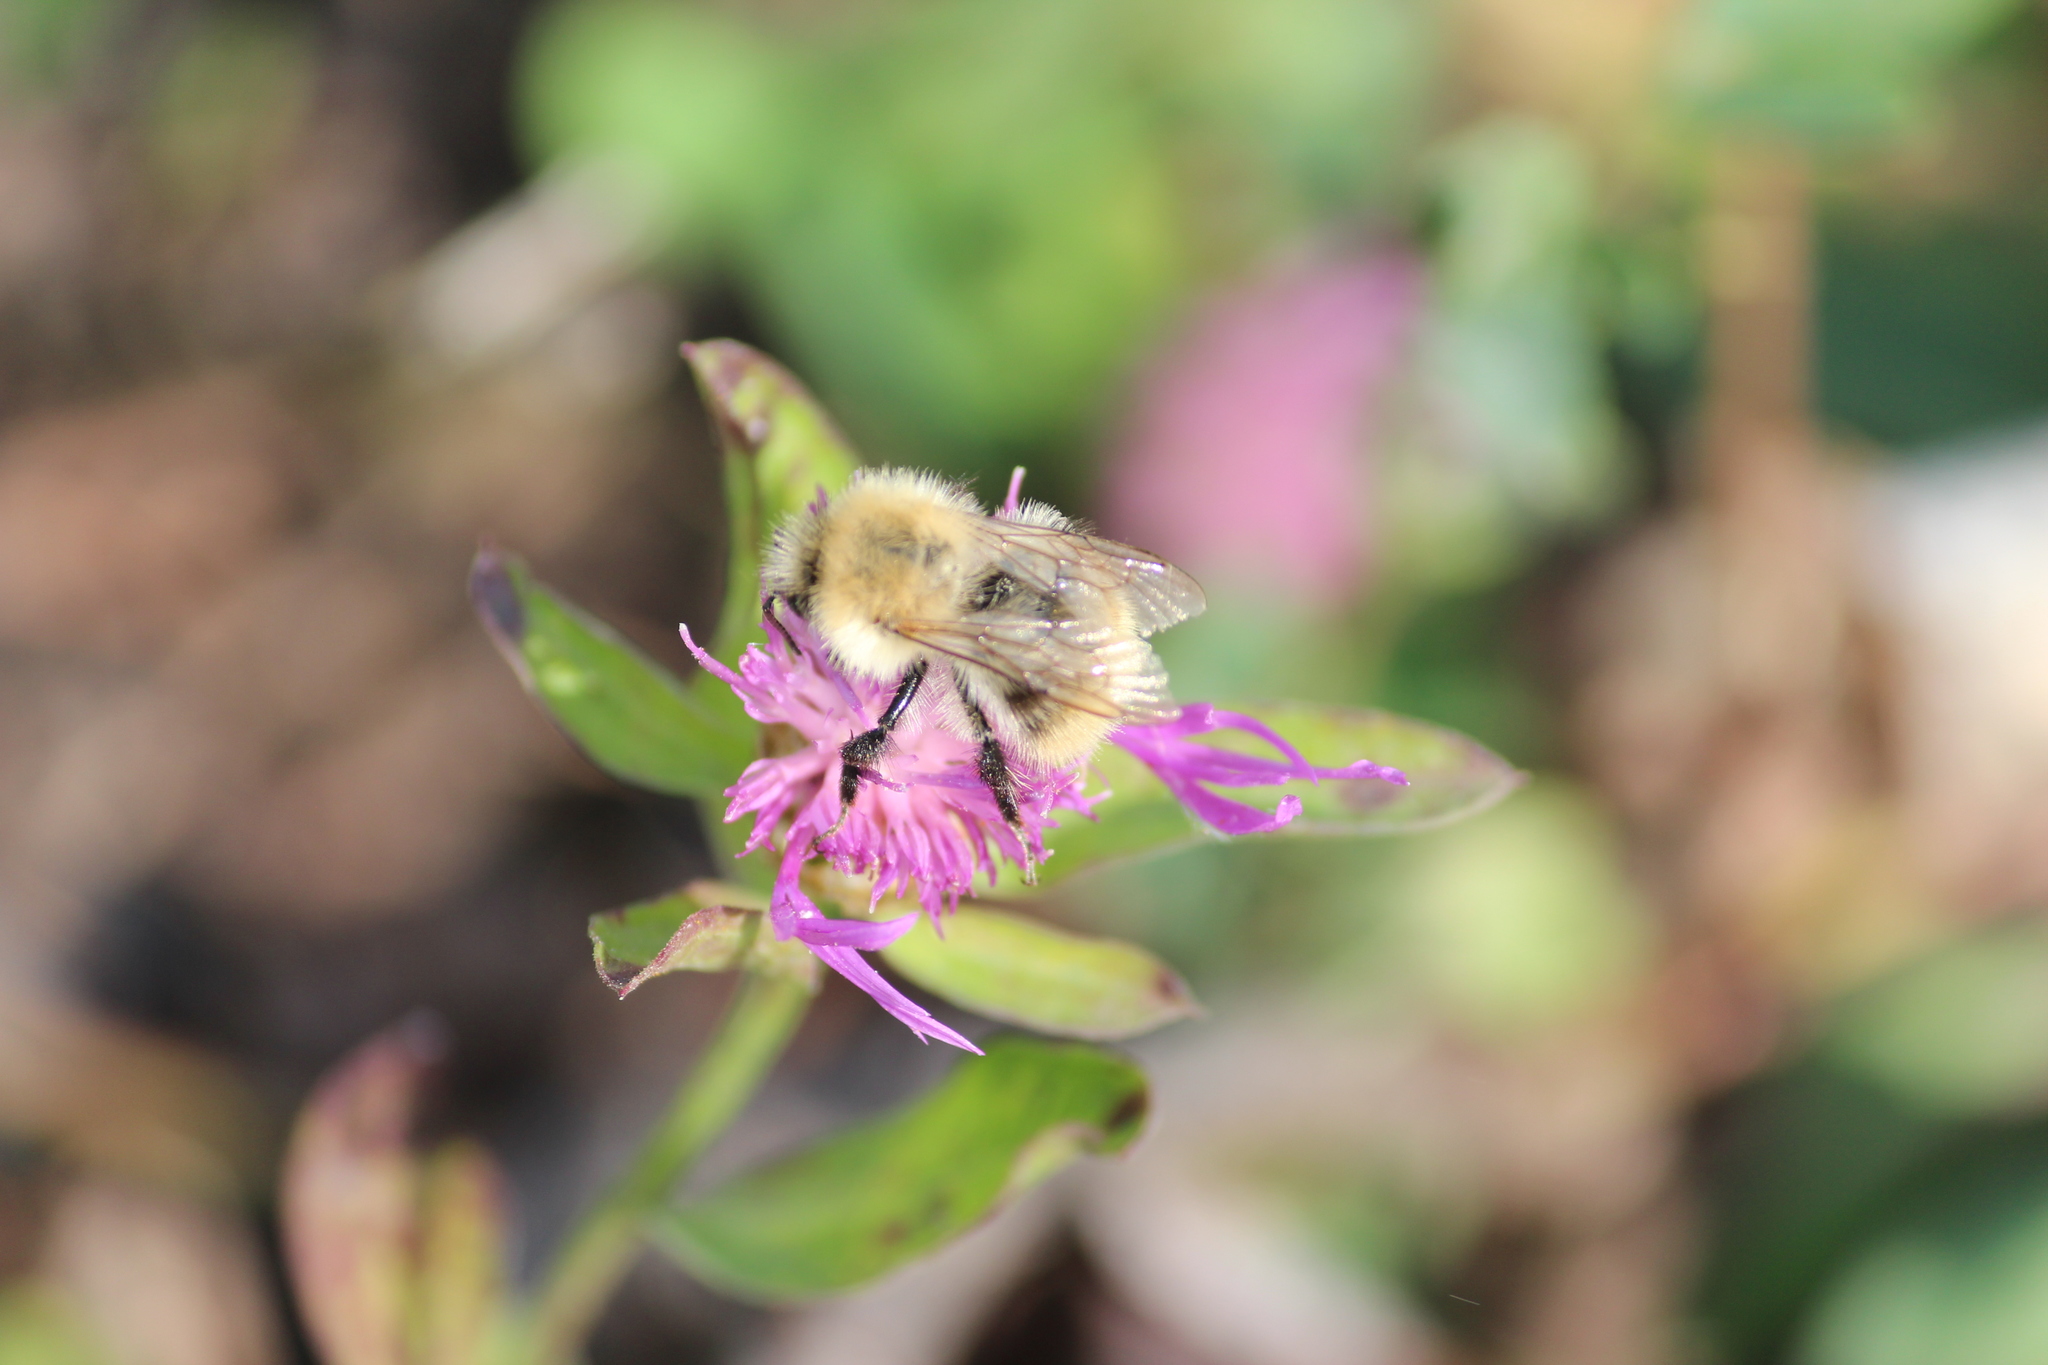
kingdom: Animalia
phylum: Arthropoda
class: Insecta
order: Hymenoptera
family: Apidae
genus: Bombus
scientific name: Bombus pascuorum
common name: Common carder bee
